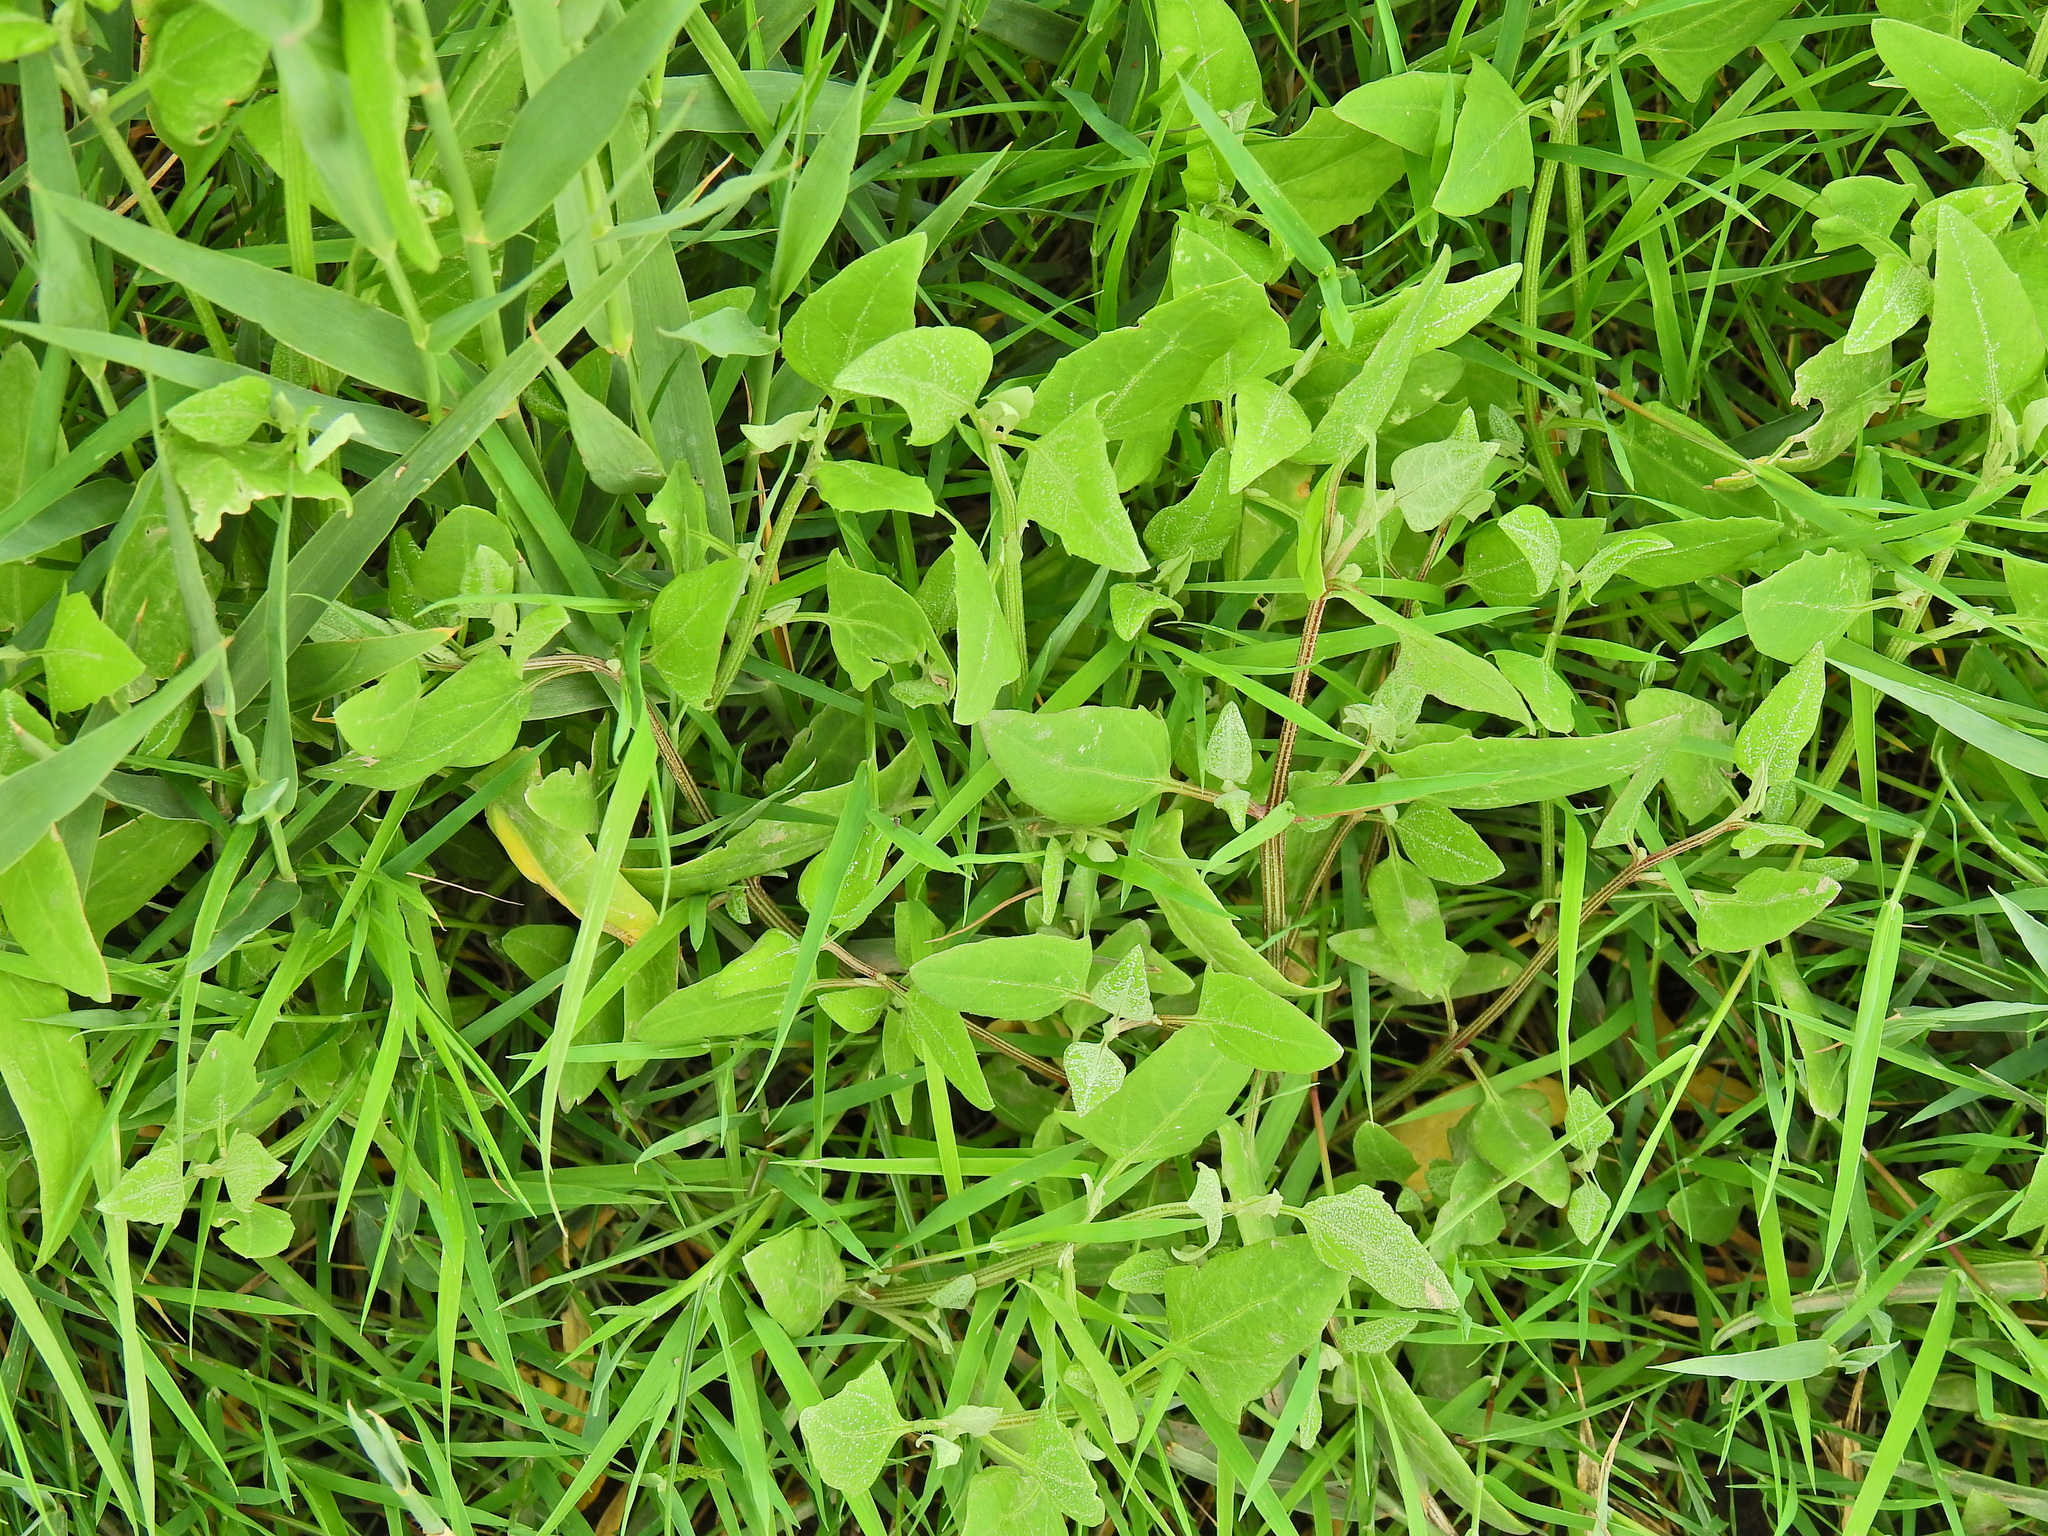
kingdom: Plantae
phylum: Tracheophyta
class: Magnoliopsida
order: Caryophyllales
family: Amaranthaceae
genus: Atriplex
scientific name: Atriplex prostrata
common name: Spear-leaved orache
